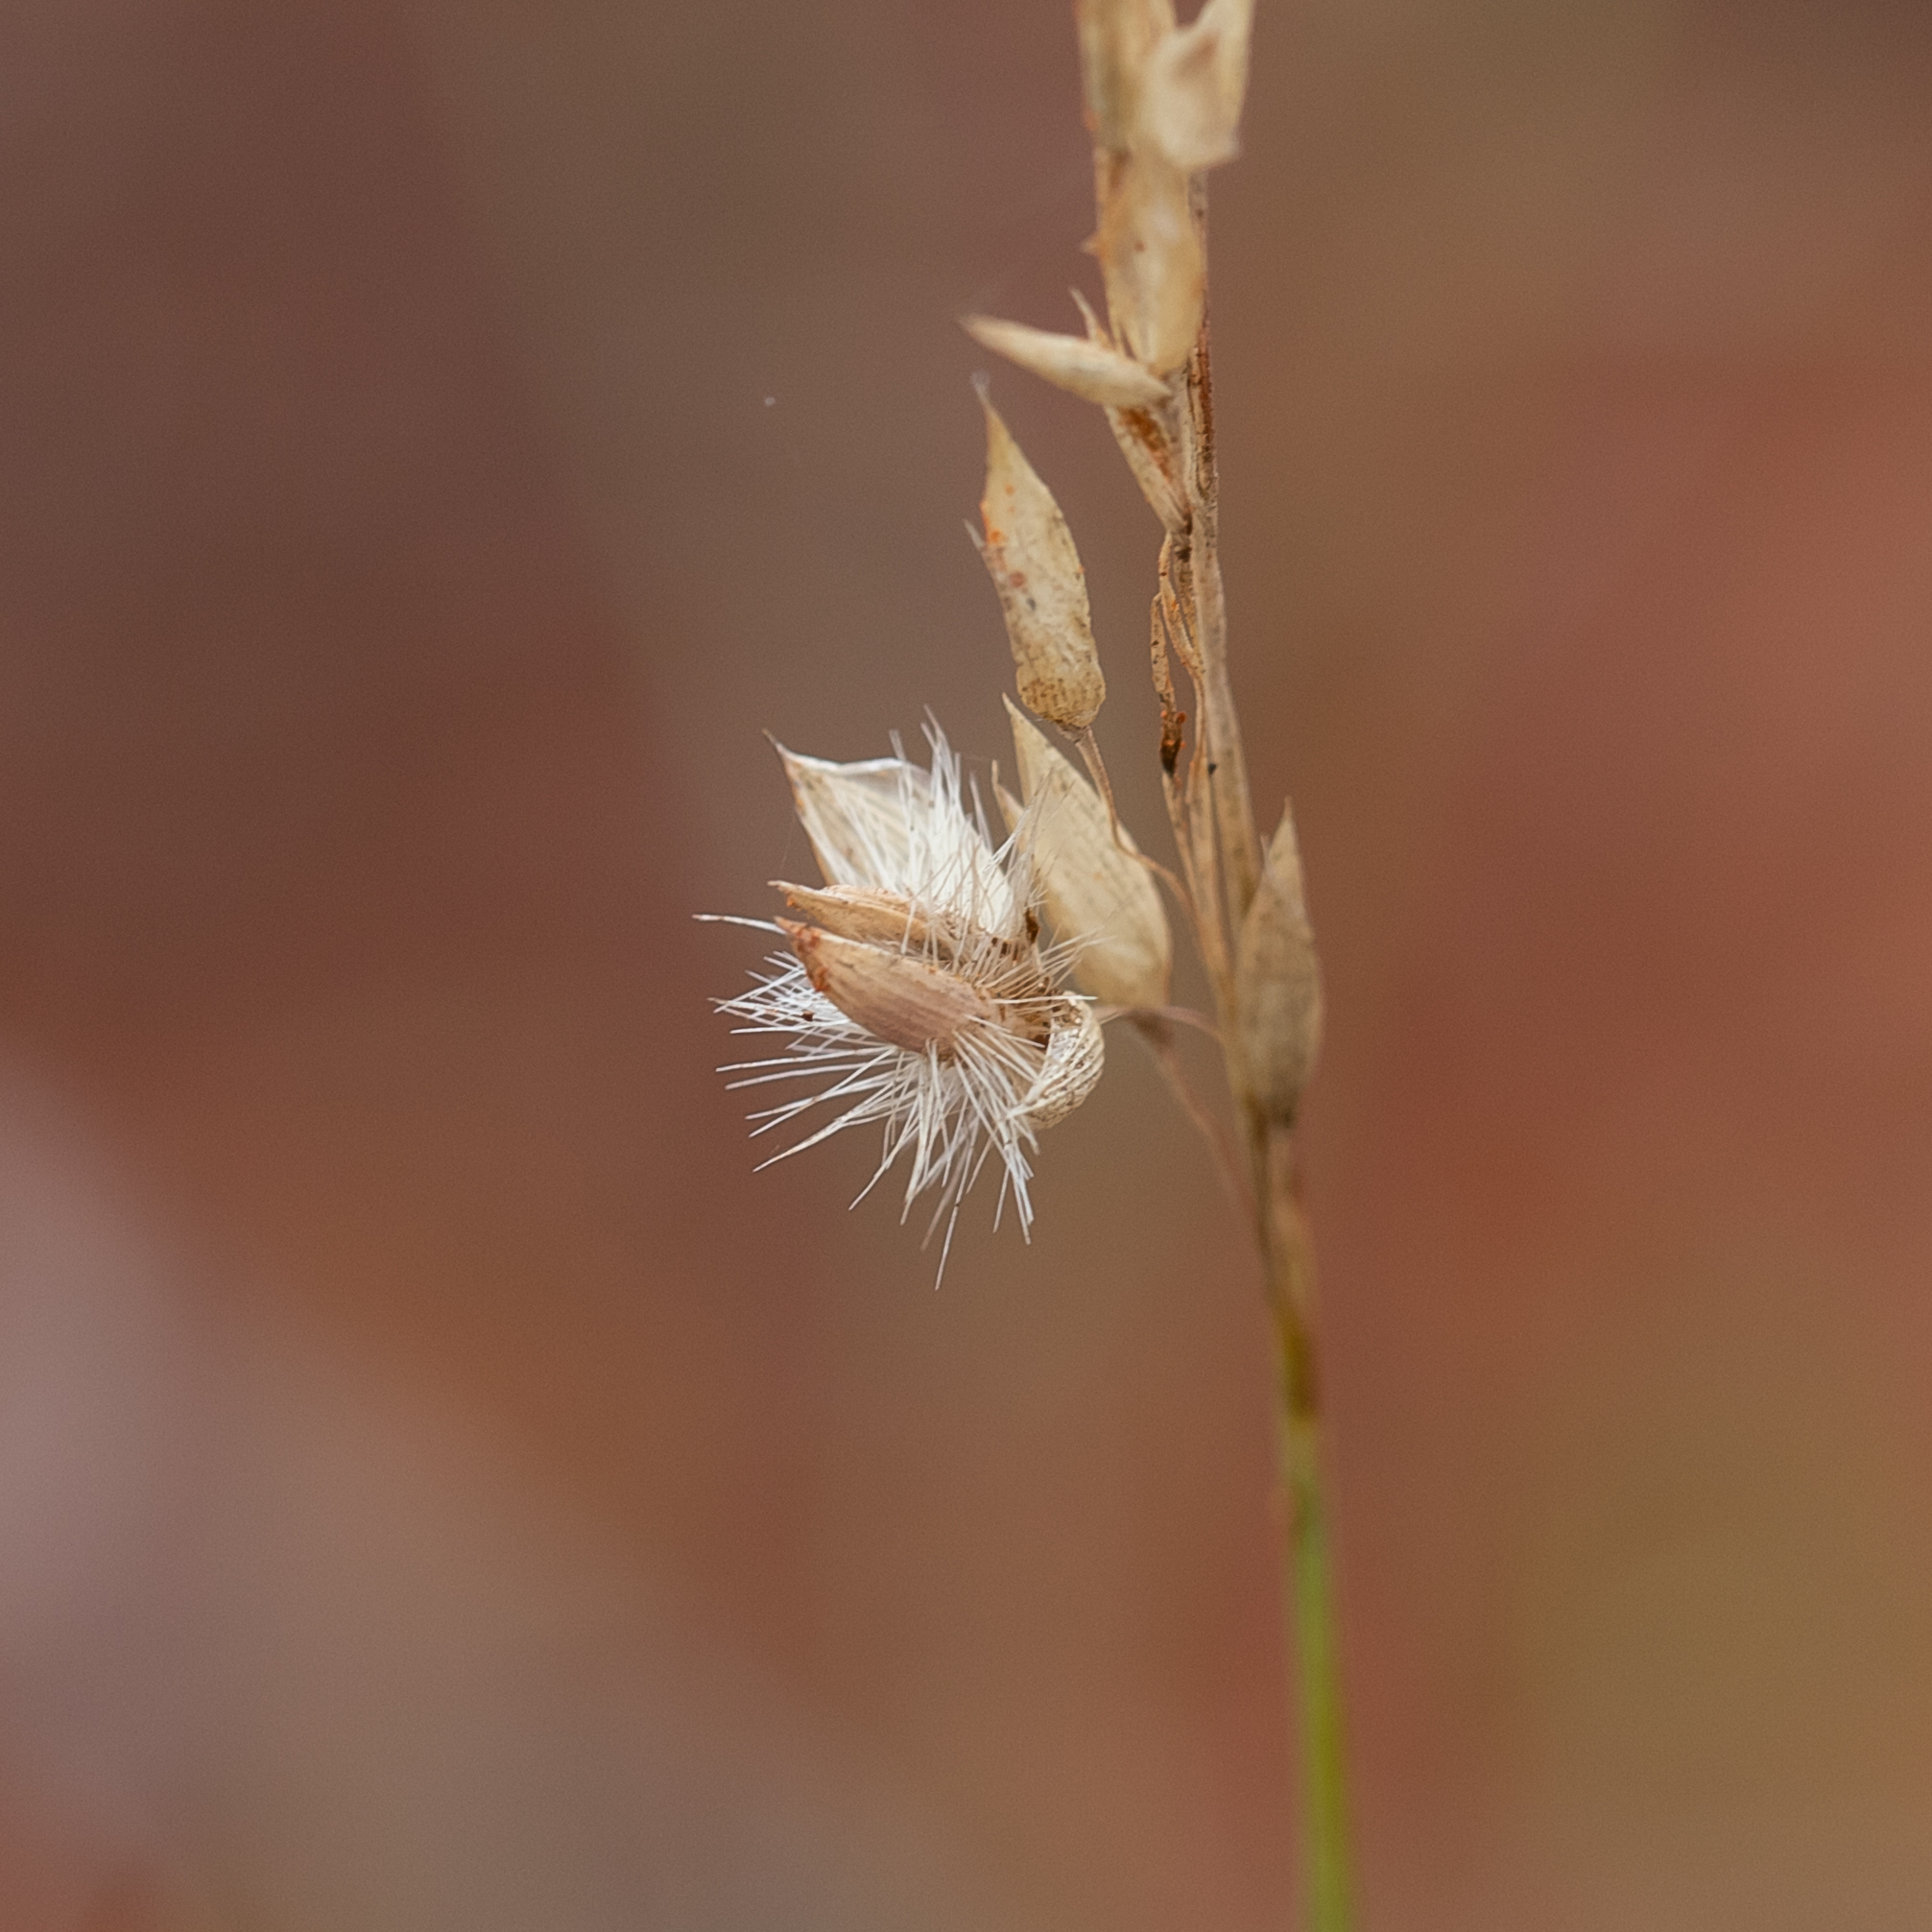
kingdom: Plantae
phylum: Tracheophyta
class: Liliopsida
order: Poales
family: Poaceae
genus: Eriachne
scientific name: Eriachne mucronata
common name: Mountain wanderrie grass
